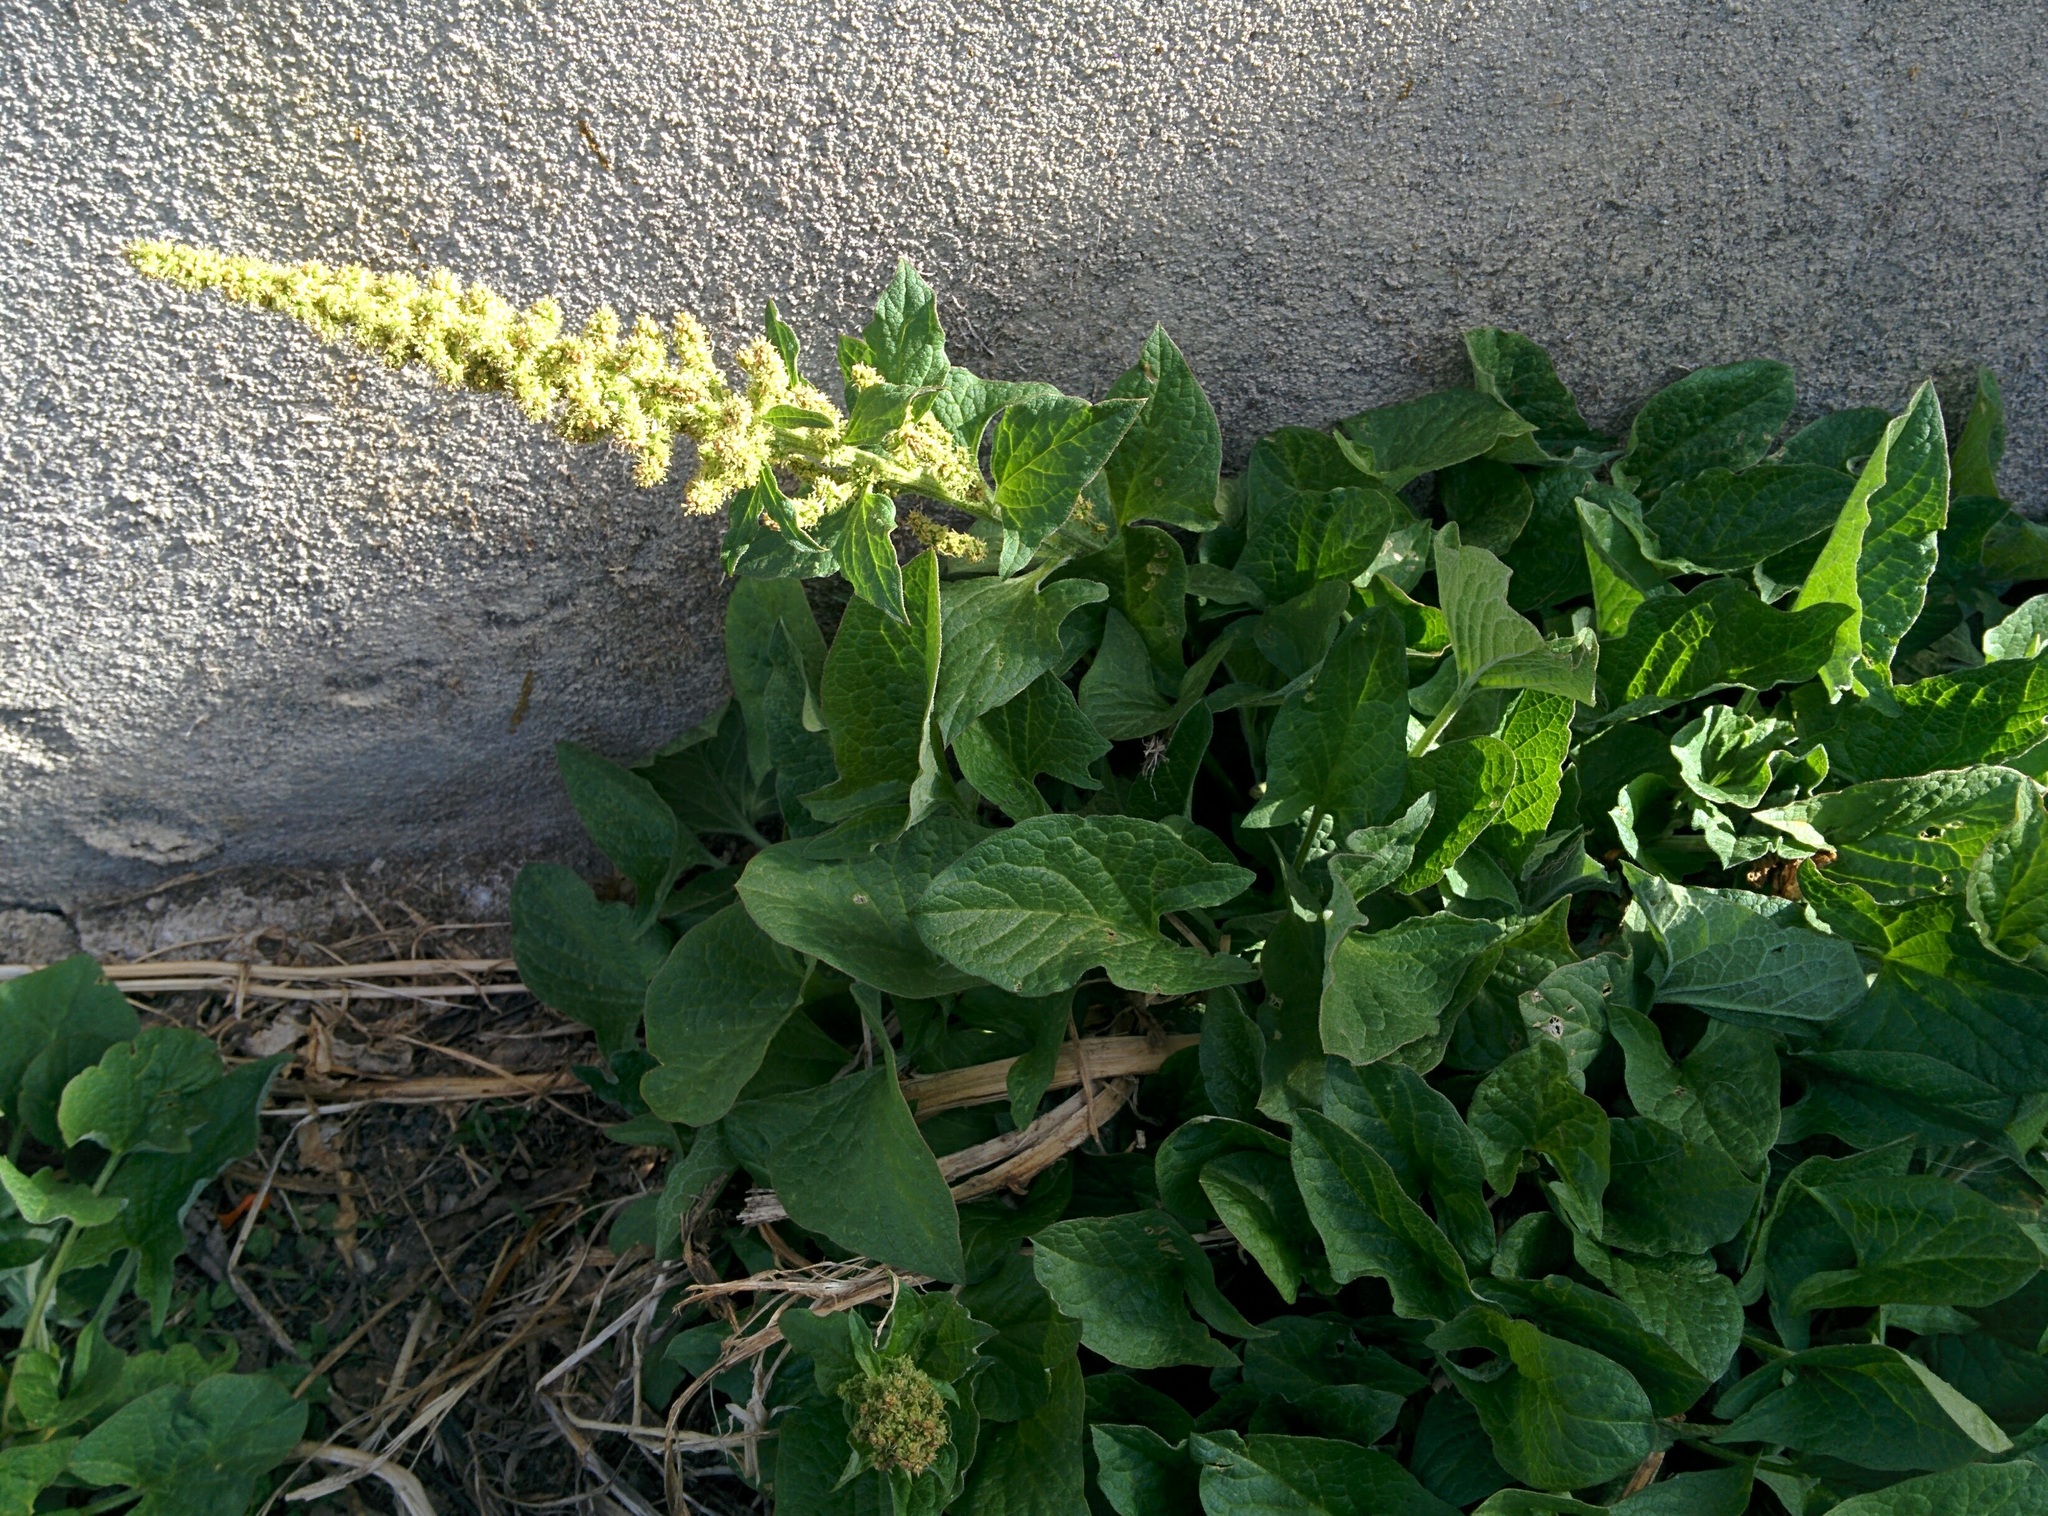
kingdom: Plantae
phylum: Tracheophyta
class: Magnoliopsida
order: Caryophyllales
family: Amaranthaceae
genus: Blitum
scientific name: Blitum bonus-henricus
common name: Good king henry
